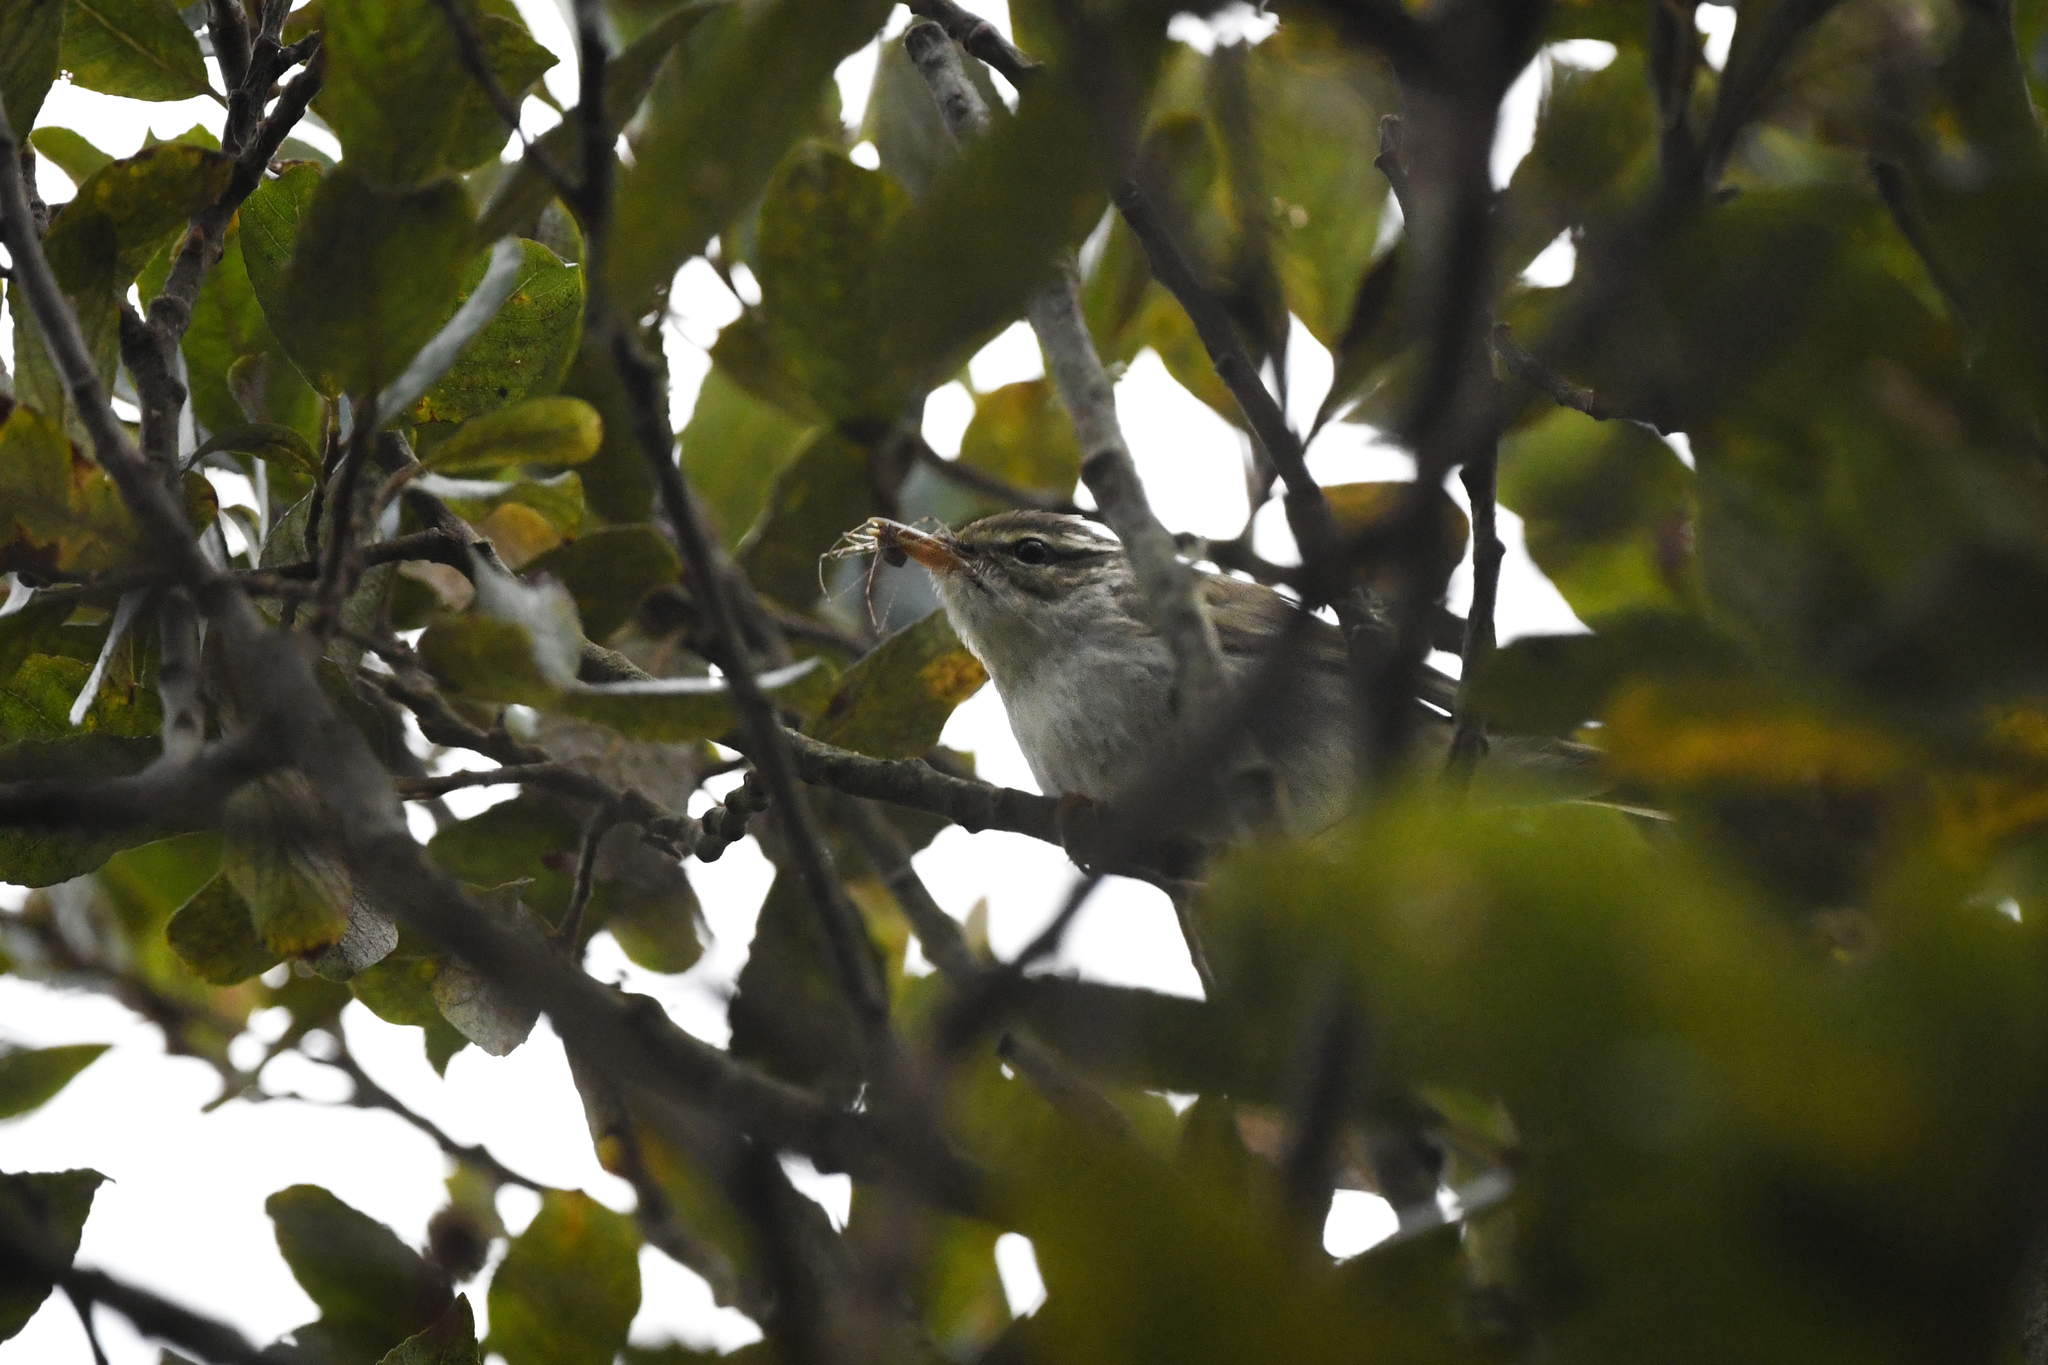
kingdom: Animalia
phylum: Chordata
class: Aves
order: Passeriformes
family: Phylloscopidae
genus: Phylloscopus
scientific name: Phylloscopus borealis
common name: Arctic warbler
